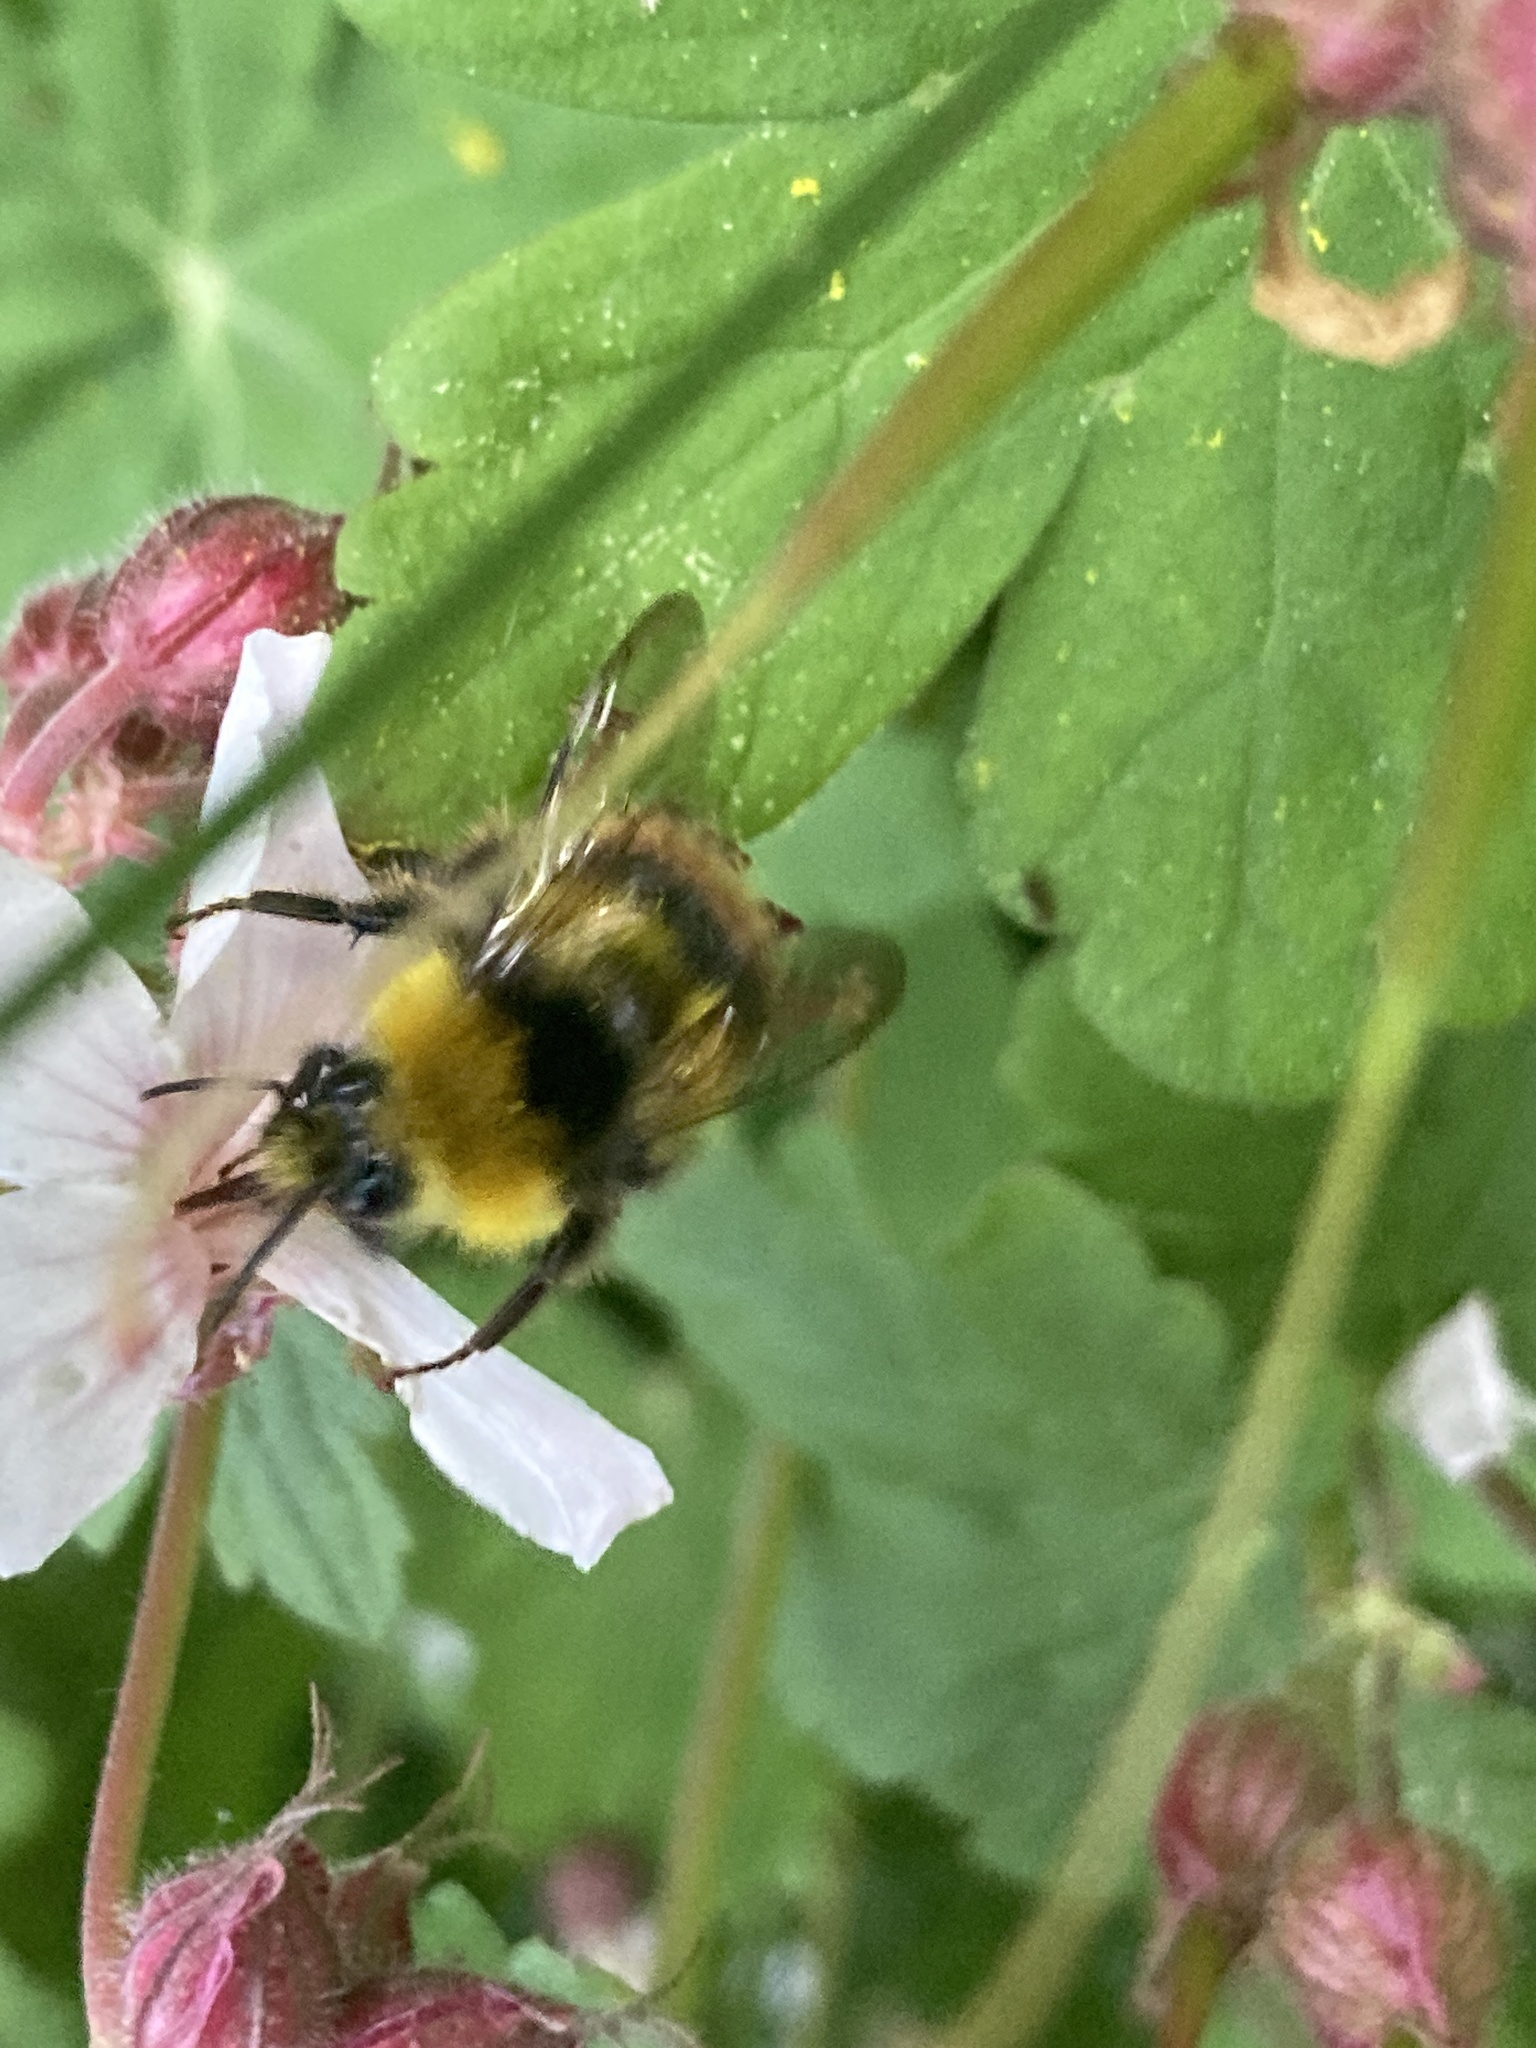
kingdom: Animalia
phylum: Arthropoda
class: Insecta
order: Hymenoptera
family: Apidae
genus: Bombus
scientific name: Bombus pratorum
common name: Early humble-bee
